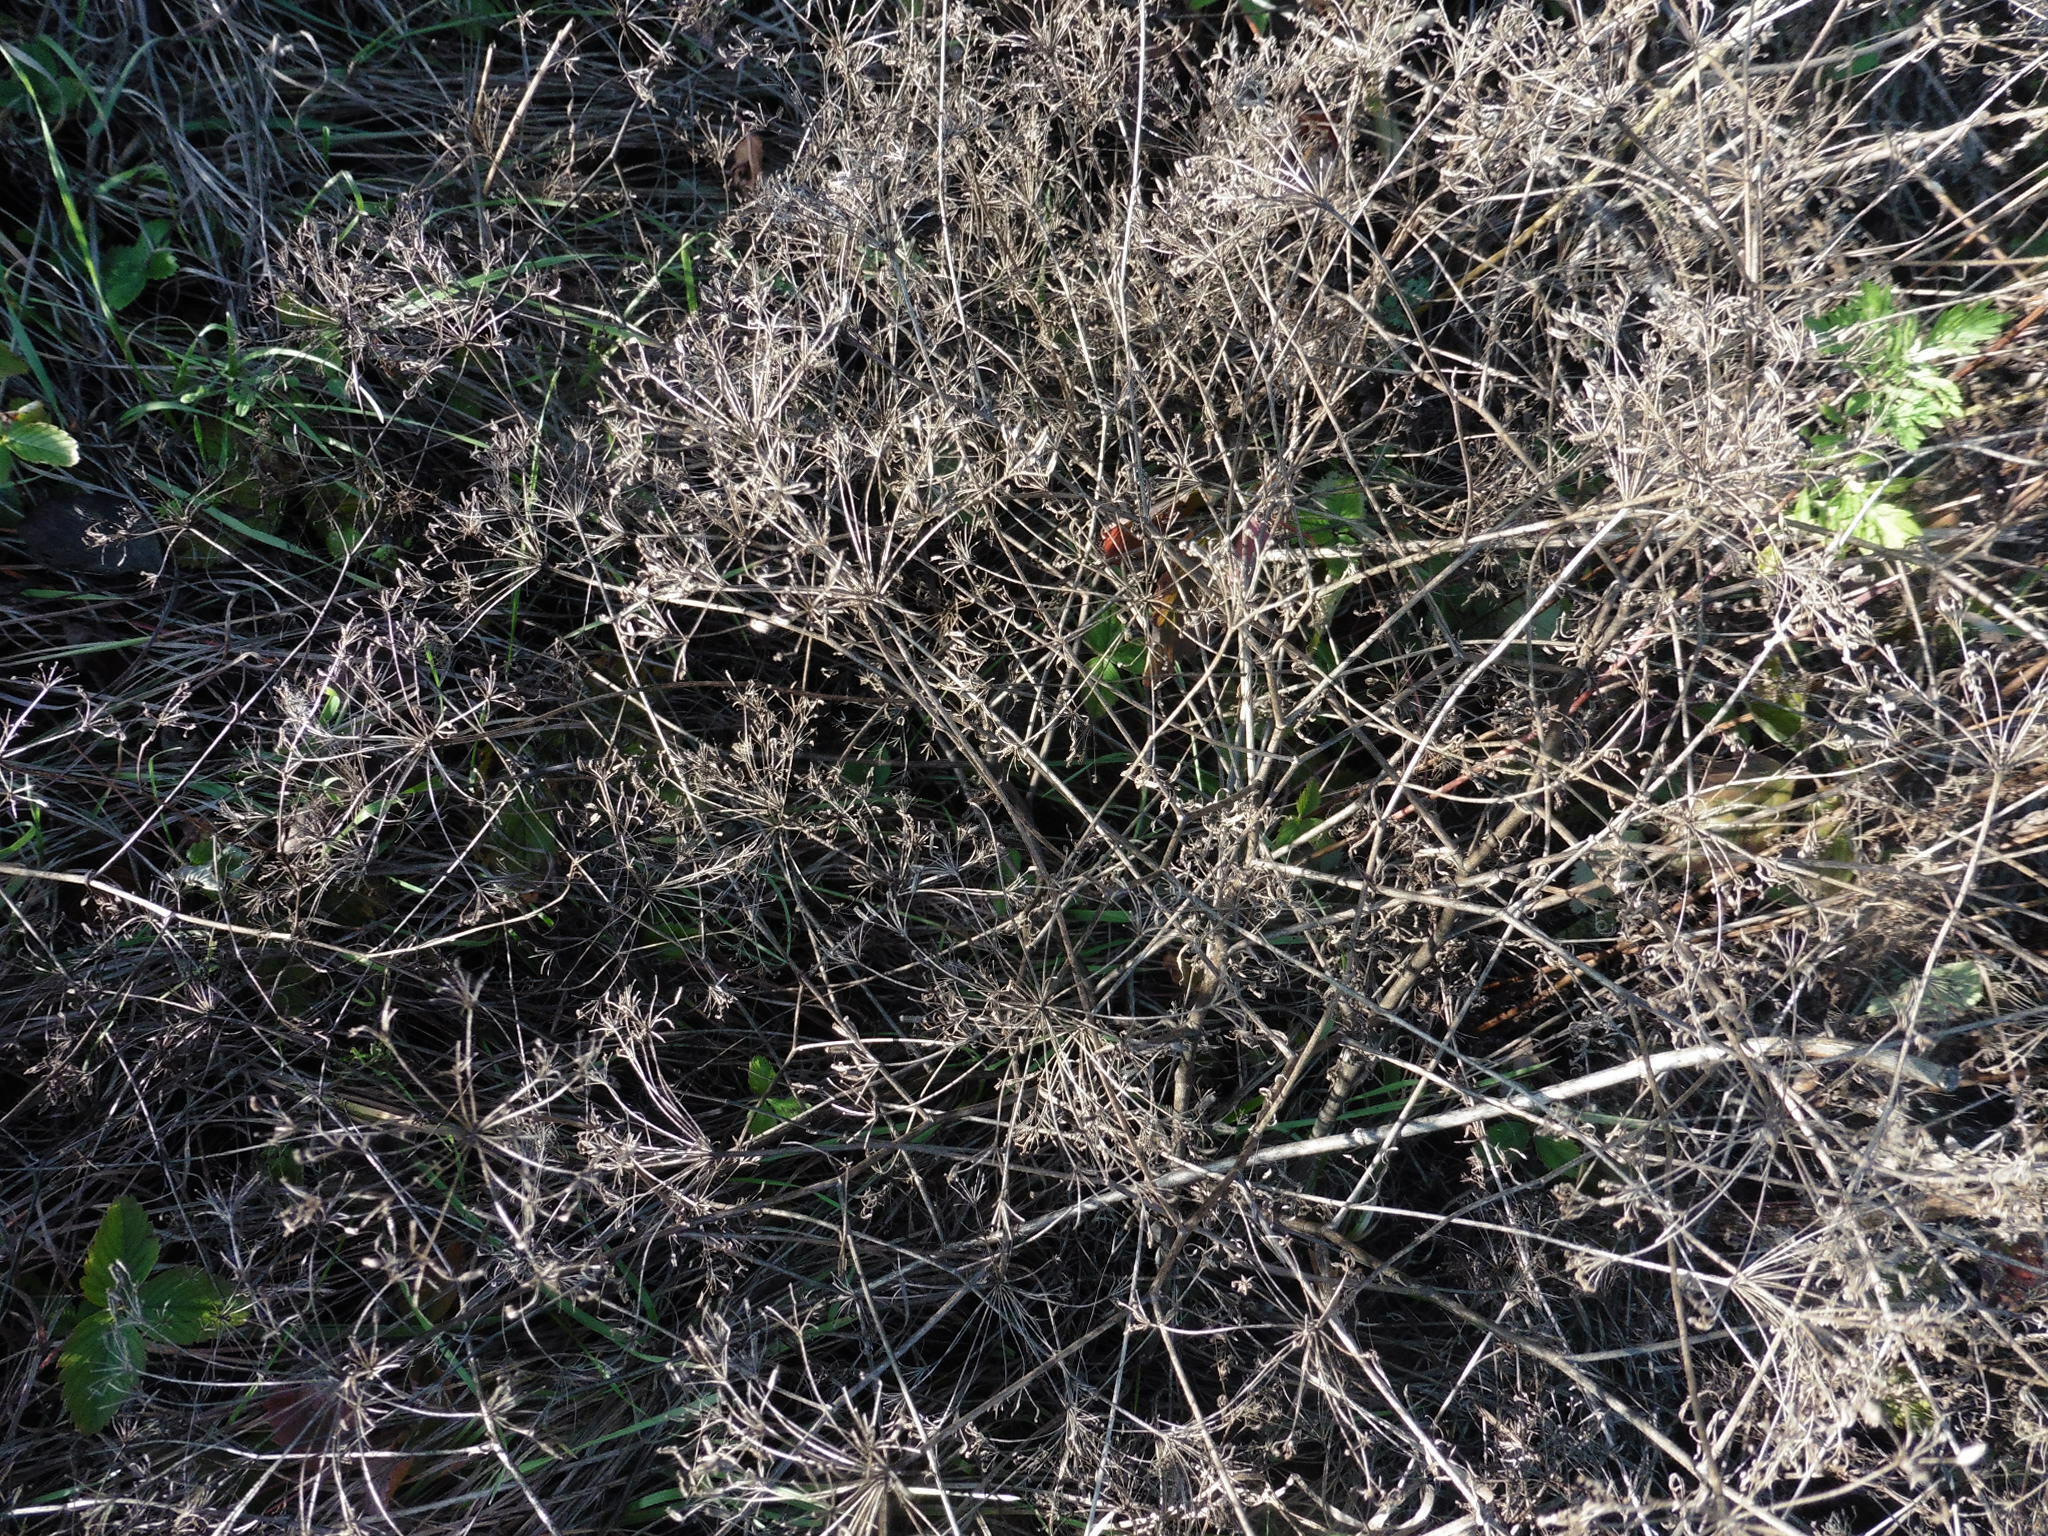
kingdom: Plantae
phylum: Tracheophyta
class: Magnoliopsida
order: Apiales
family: Apiaceae
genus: Falcaria
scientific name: Falcaria vulgaris
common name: Longleaf
